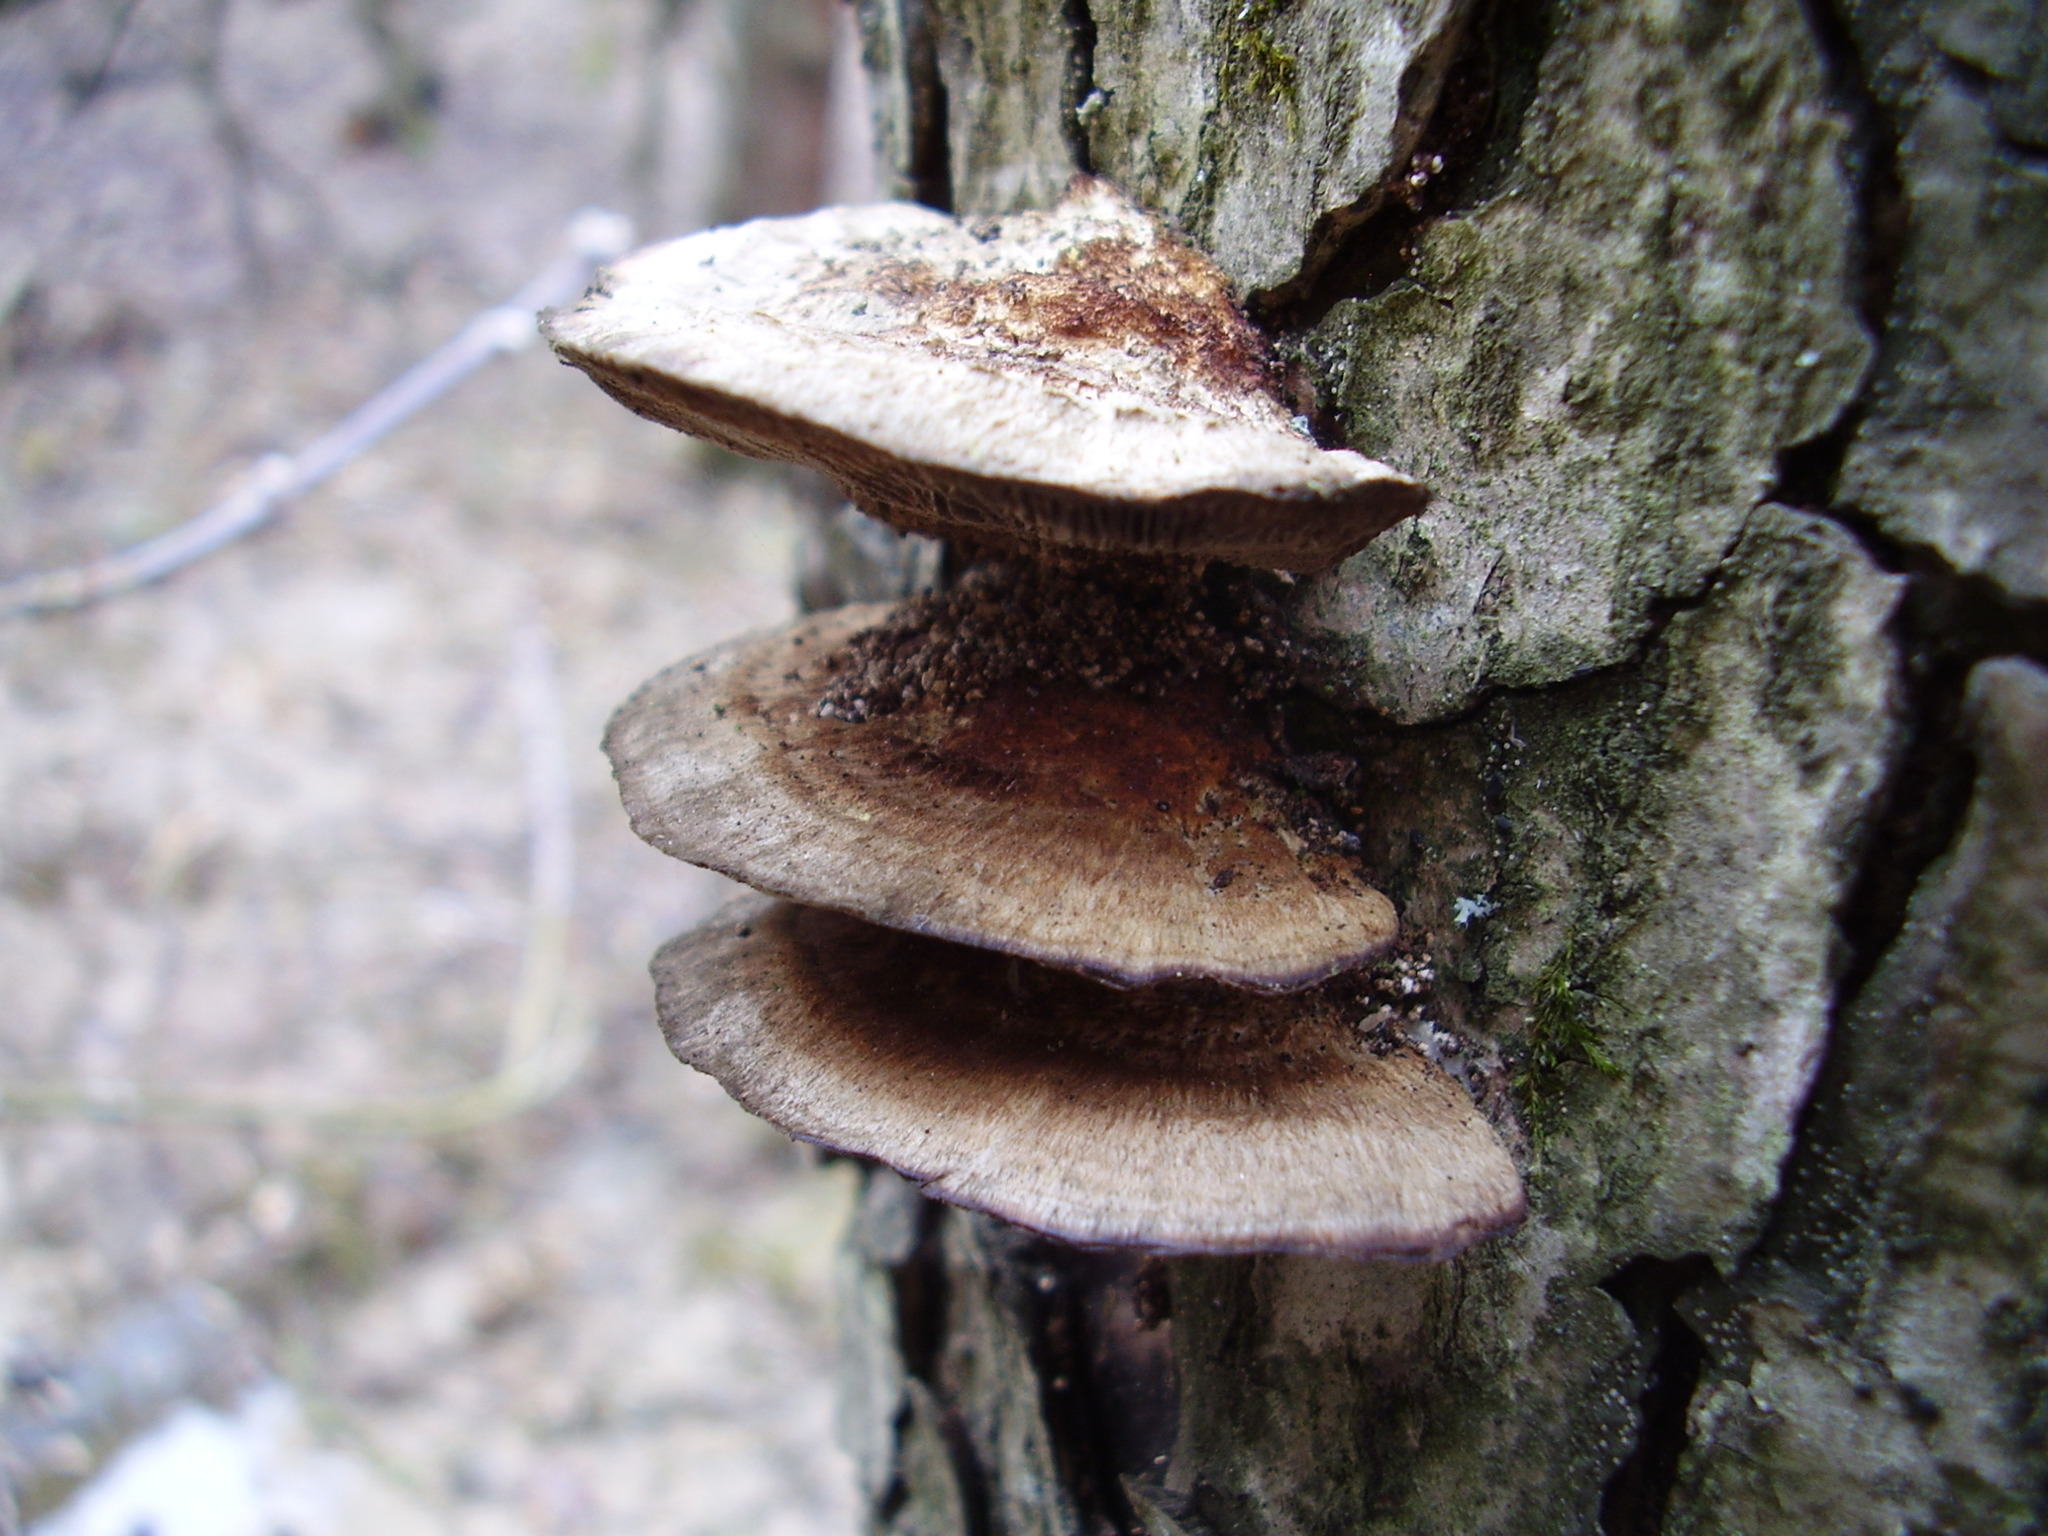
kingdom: Fungi
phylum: Basidiomycota
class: Agaricomycetes
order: Polyporales
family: Polyporaceae
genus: Daedaleopsis
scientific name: Daedaleopsis confragosa
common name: Blushing bracket
